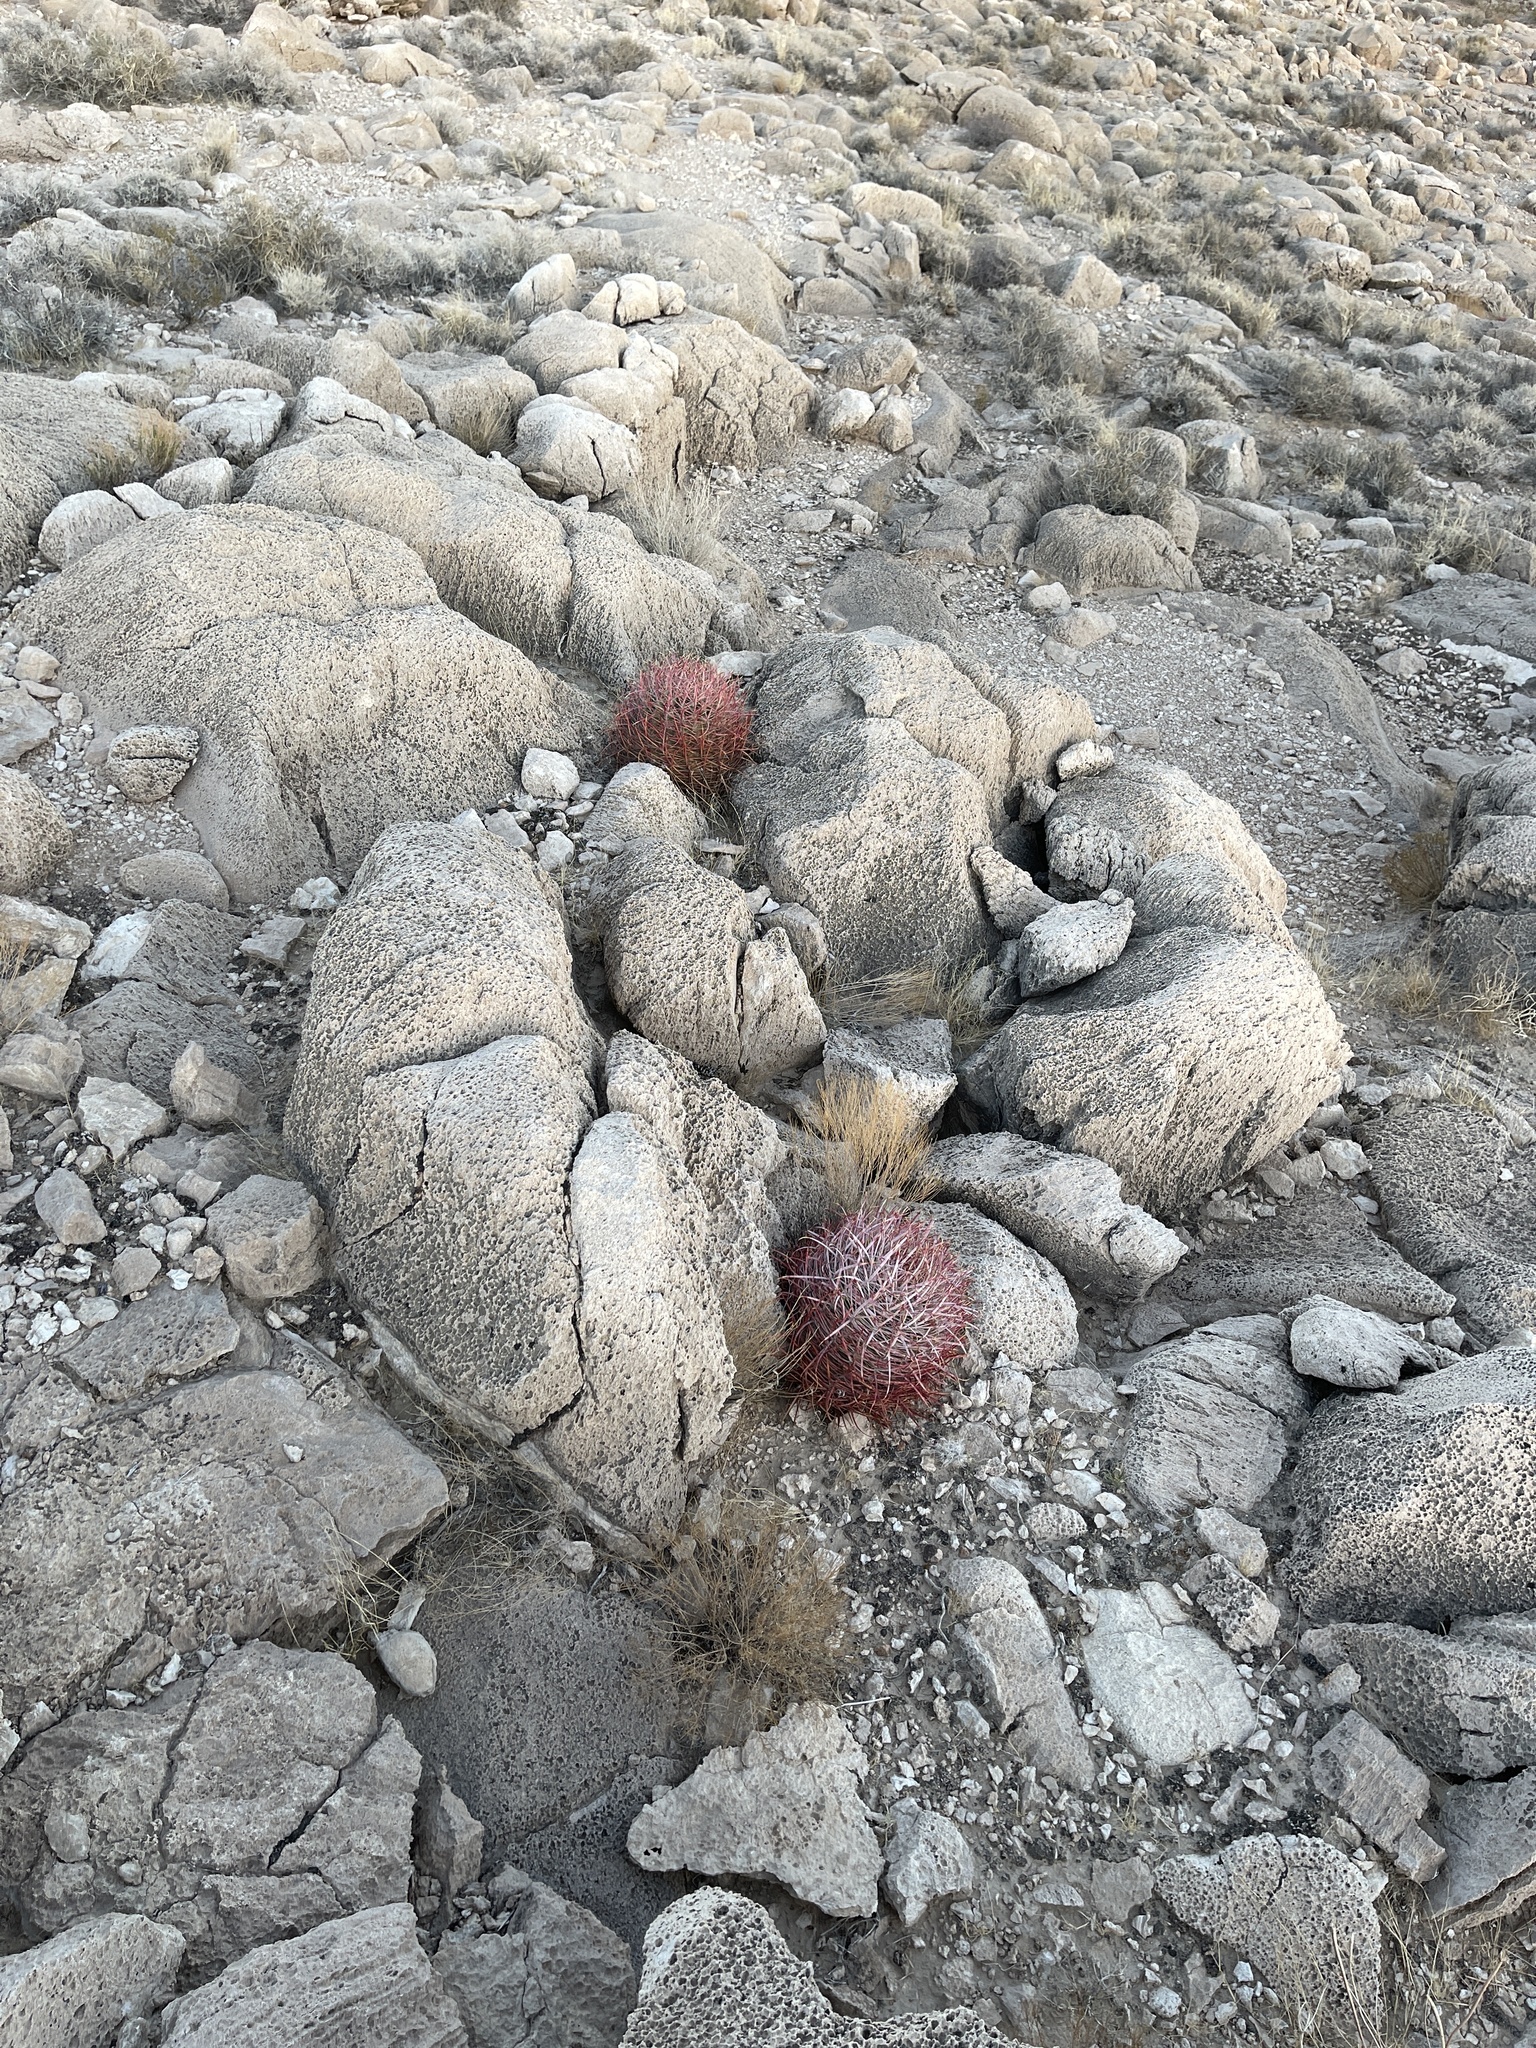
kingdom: Plantae
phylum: Tracheophyta
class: Magnoliopsida
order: Caryophyllales
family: Cactaceae
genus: Ferocactus
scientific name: Ferocactus cylindraceus
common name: California barrel cactus
